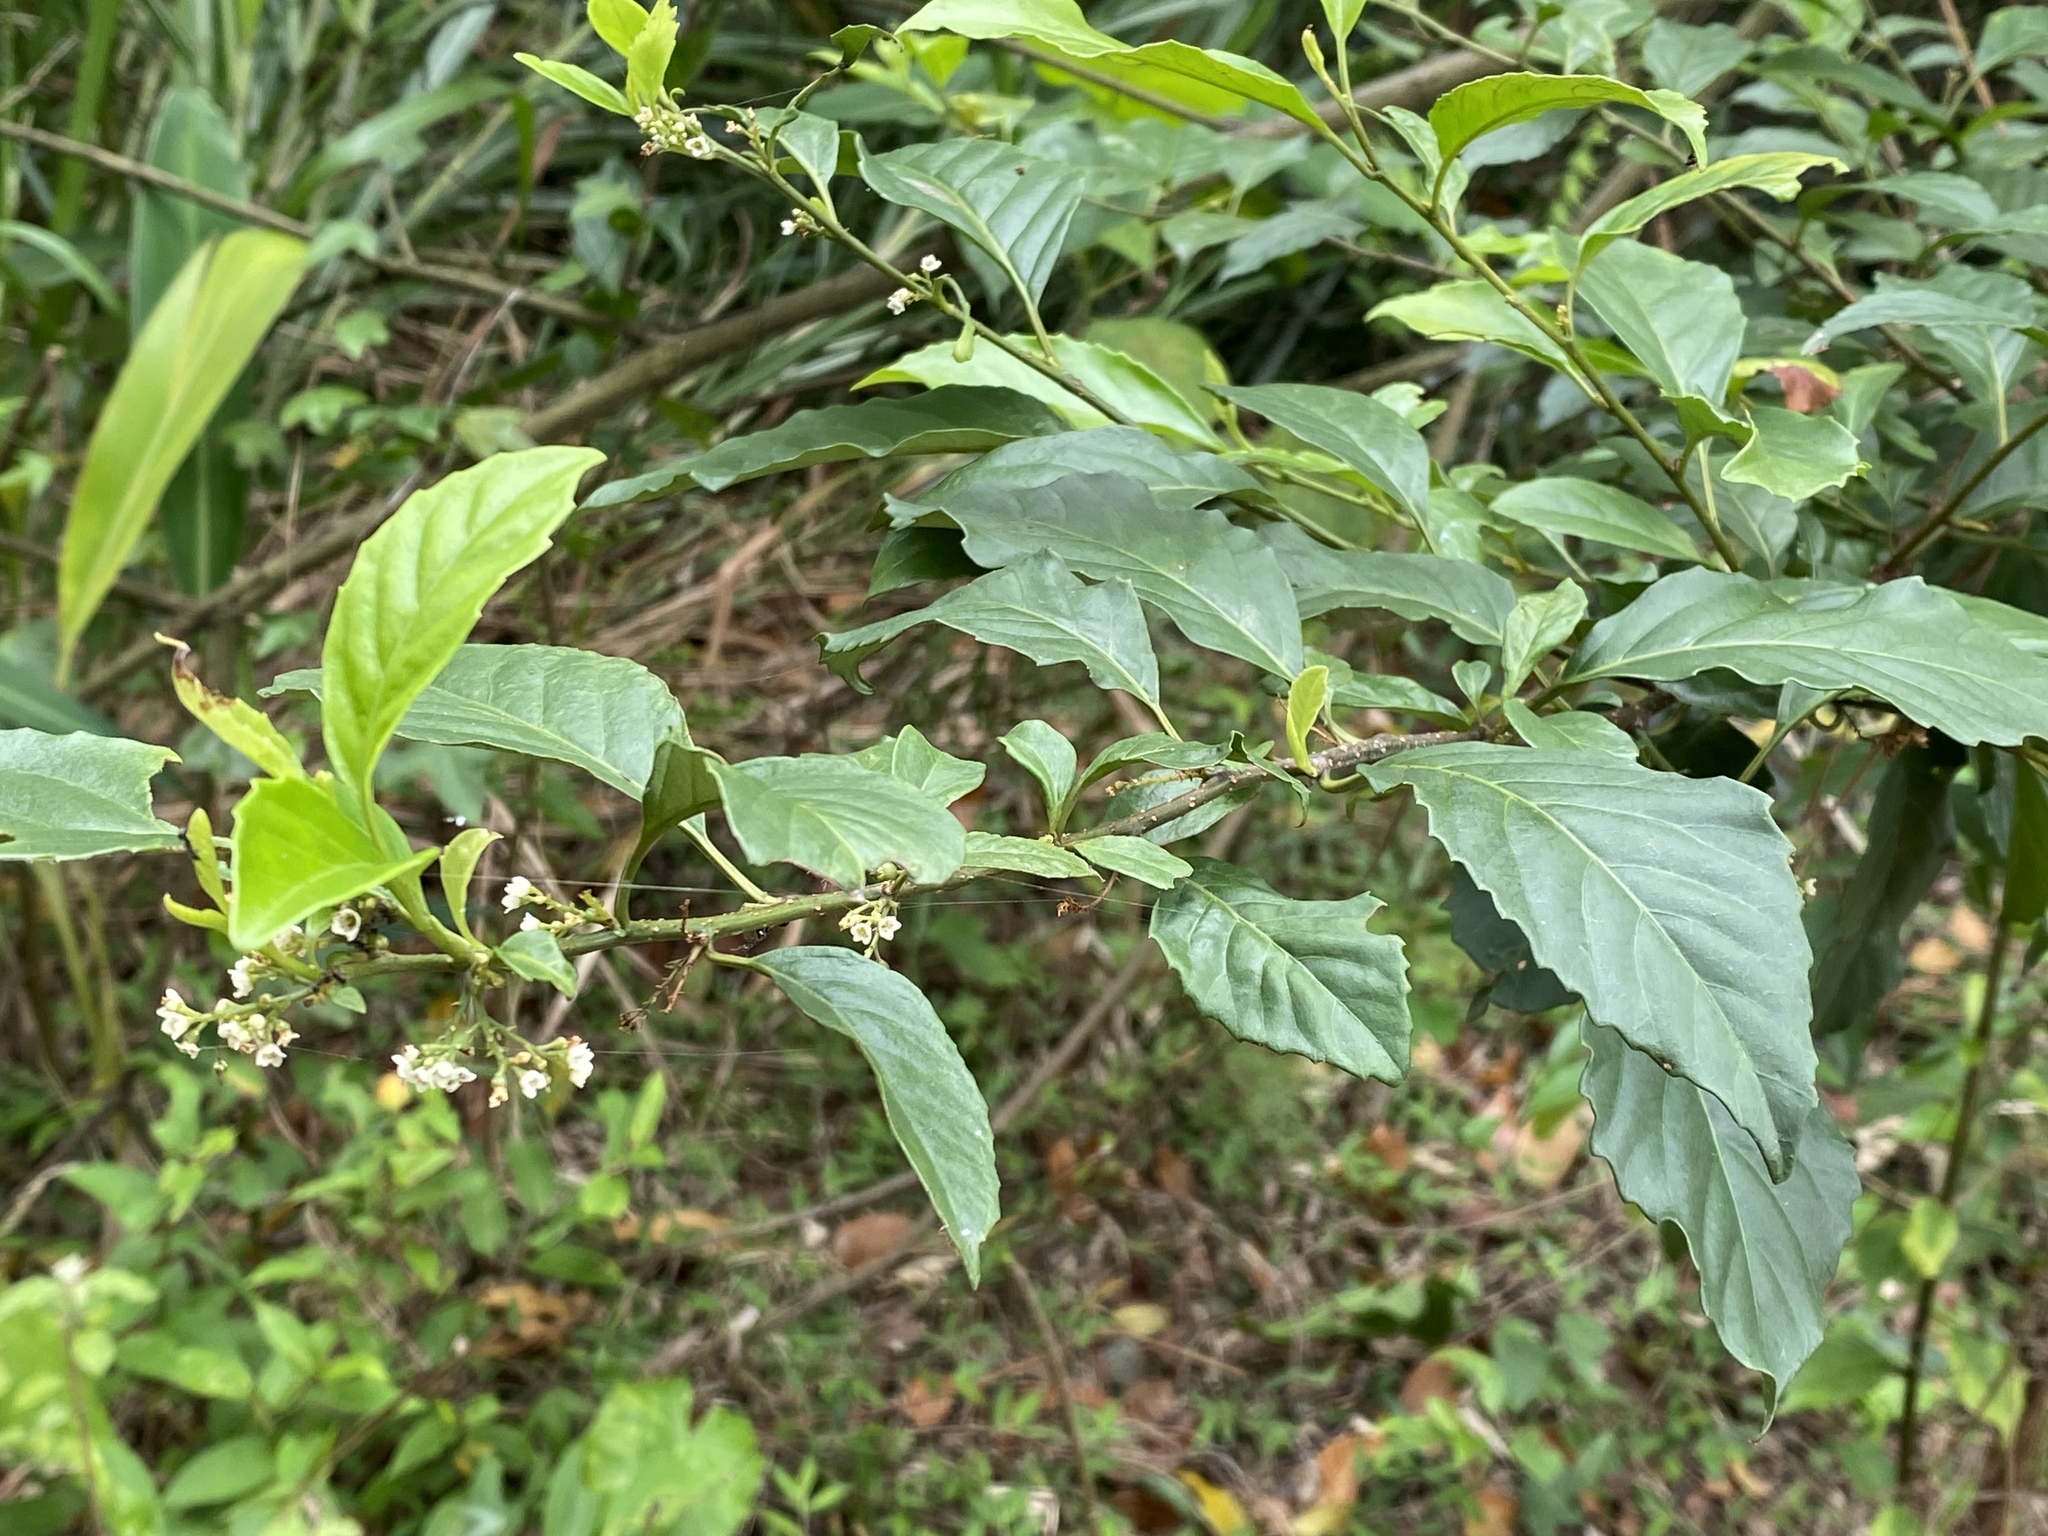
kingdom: Plantae
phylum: Tracheophyta
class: Magnoliopsida
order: Ericales
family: Primulaceae
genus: Maesa
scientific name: Maesa perlaria
